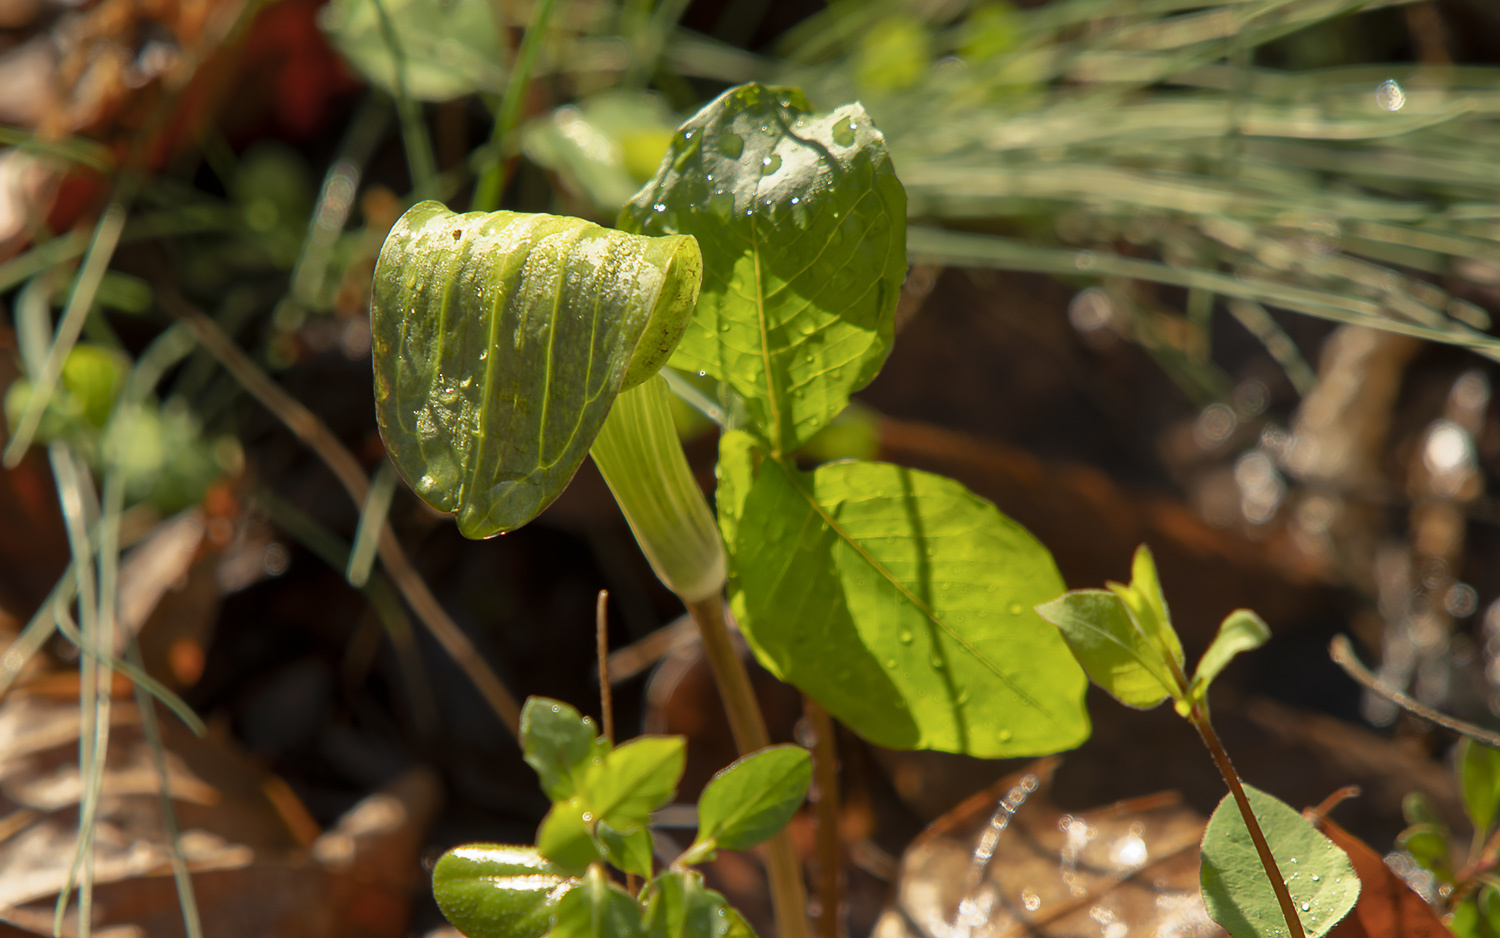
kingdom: Plantae
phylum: Tracheophyta
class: Liliopsida
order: Alismatales
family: Araceae
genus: Arisaema
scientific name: Arisaema triphyllum
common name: Jack-in-the-pulpit
